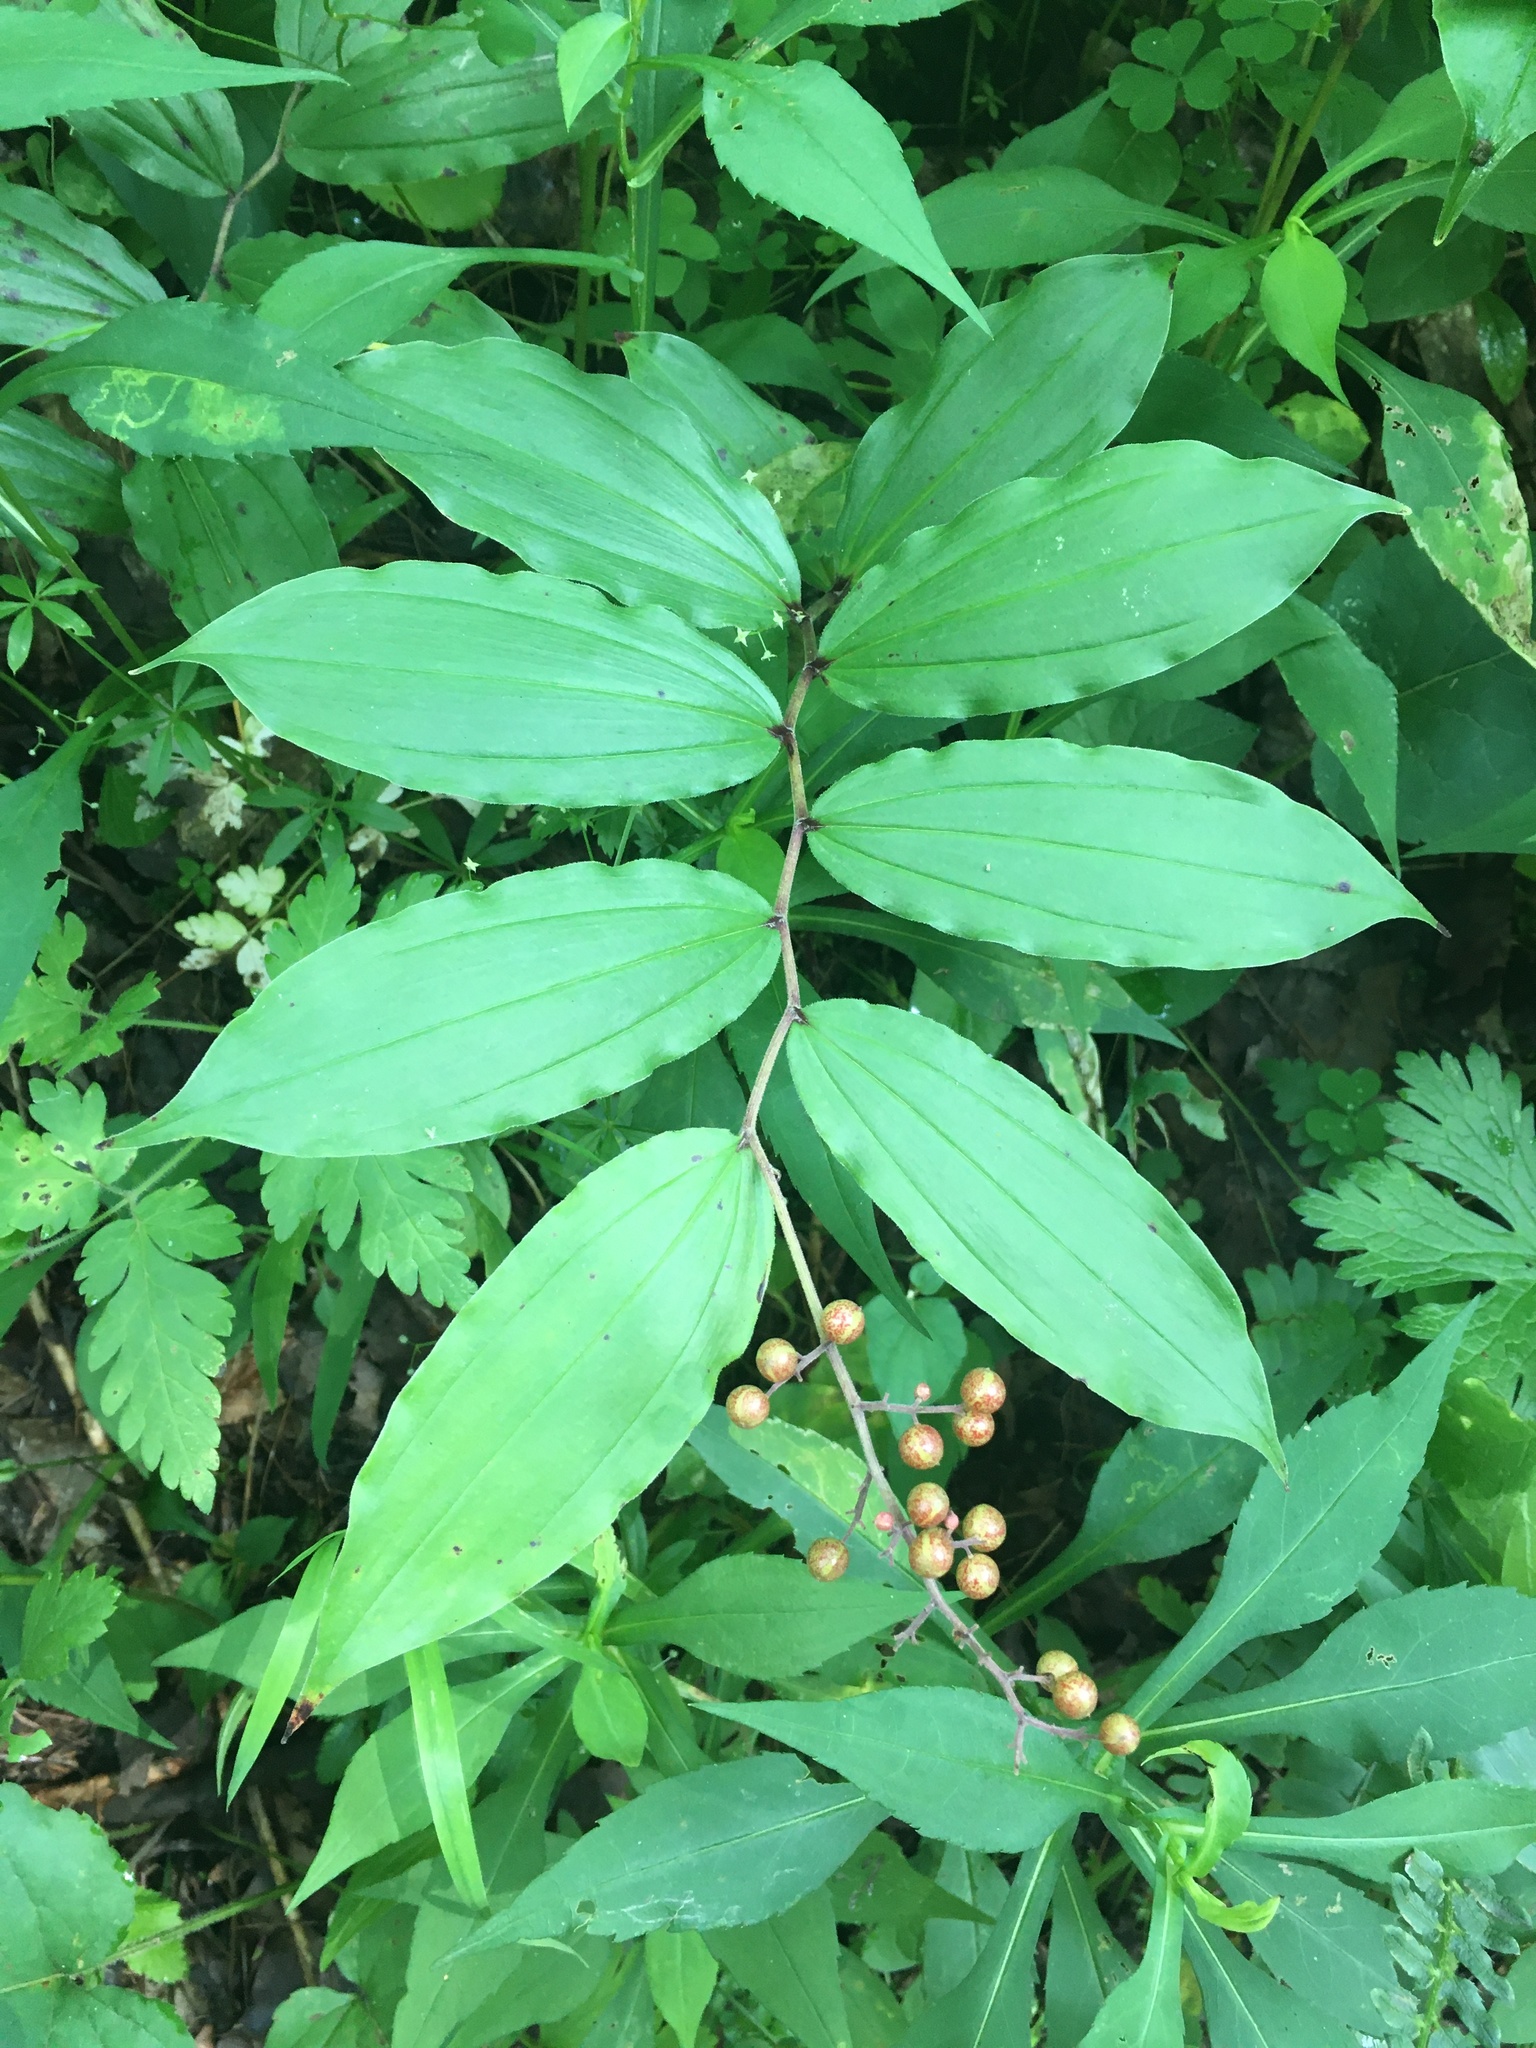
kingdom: Plantae
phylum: Tracheophyta
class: Liliopsida
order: Asparagales
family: Asparagaceae
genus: Maianthemum
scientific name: Maianthemum racemosum
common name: False spikenard
